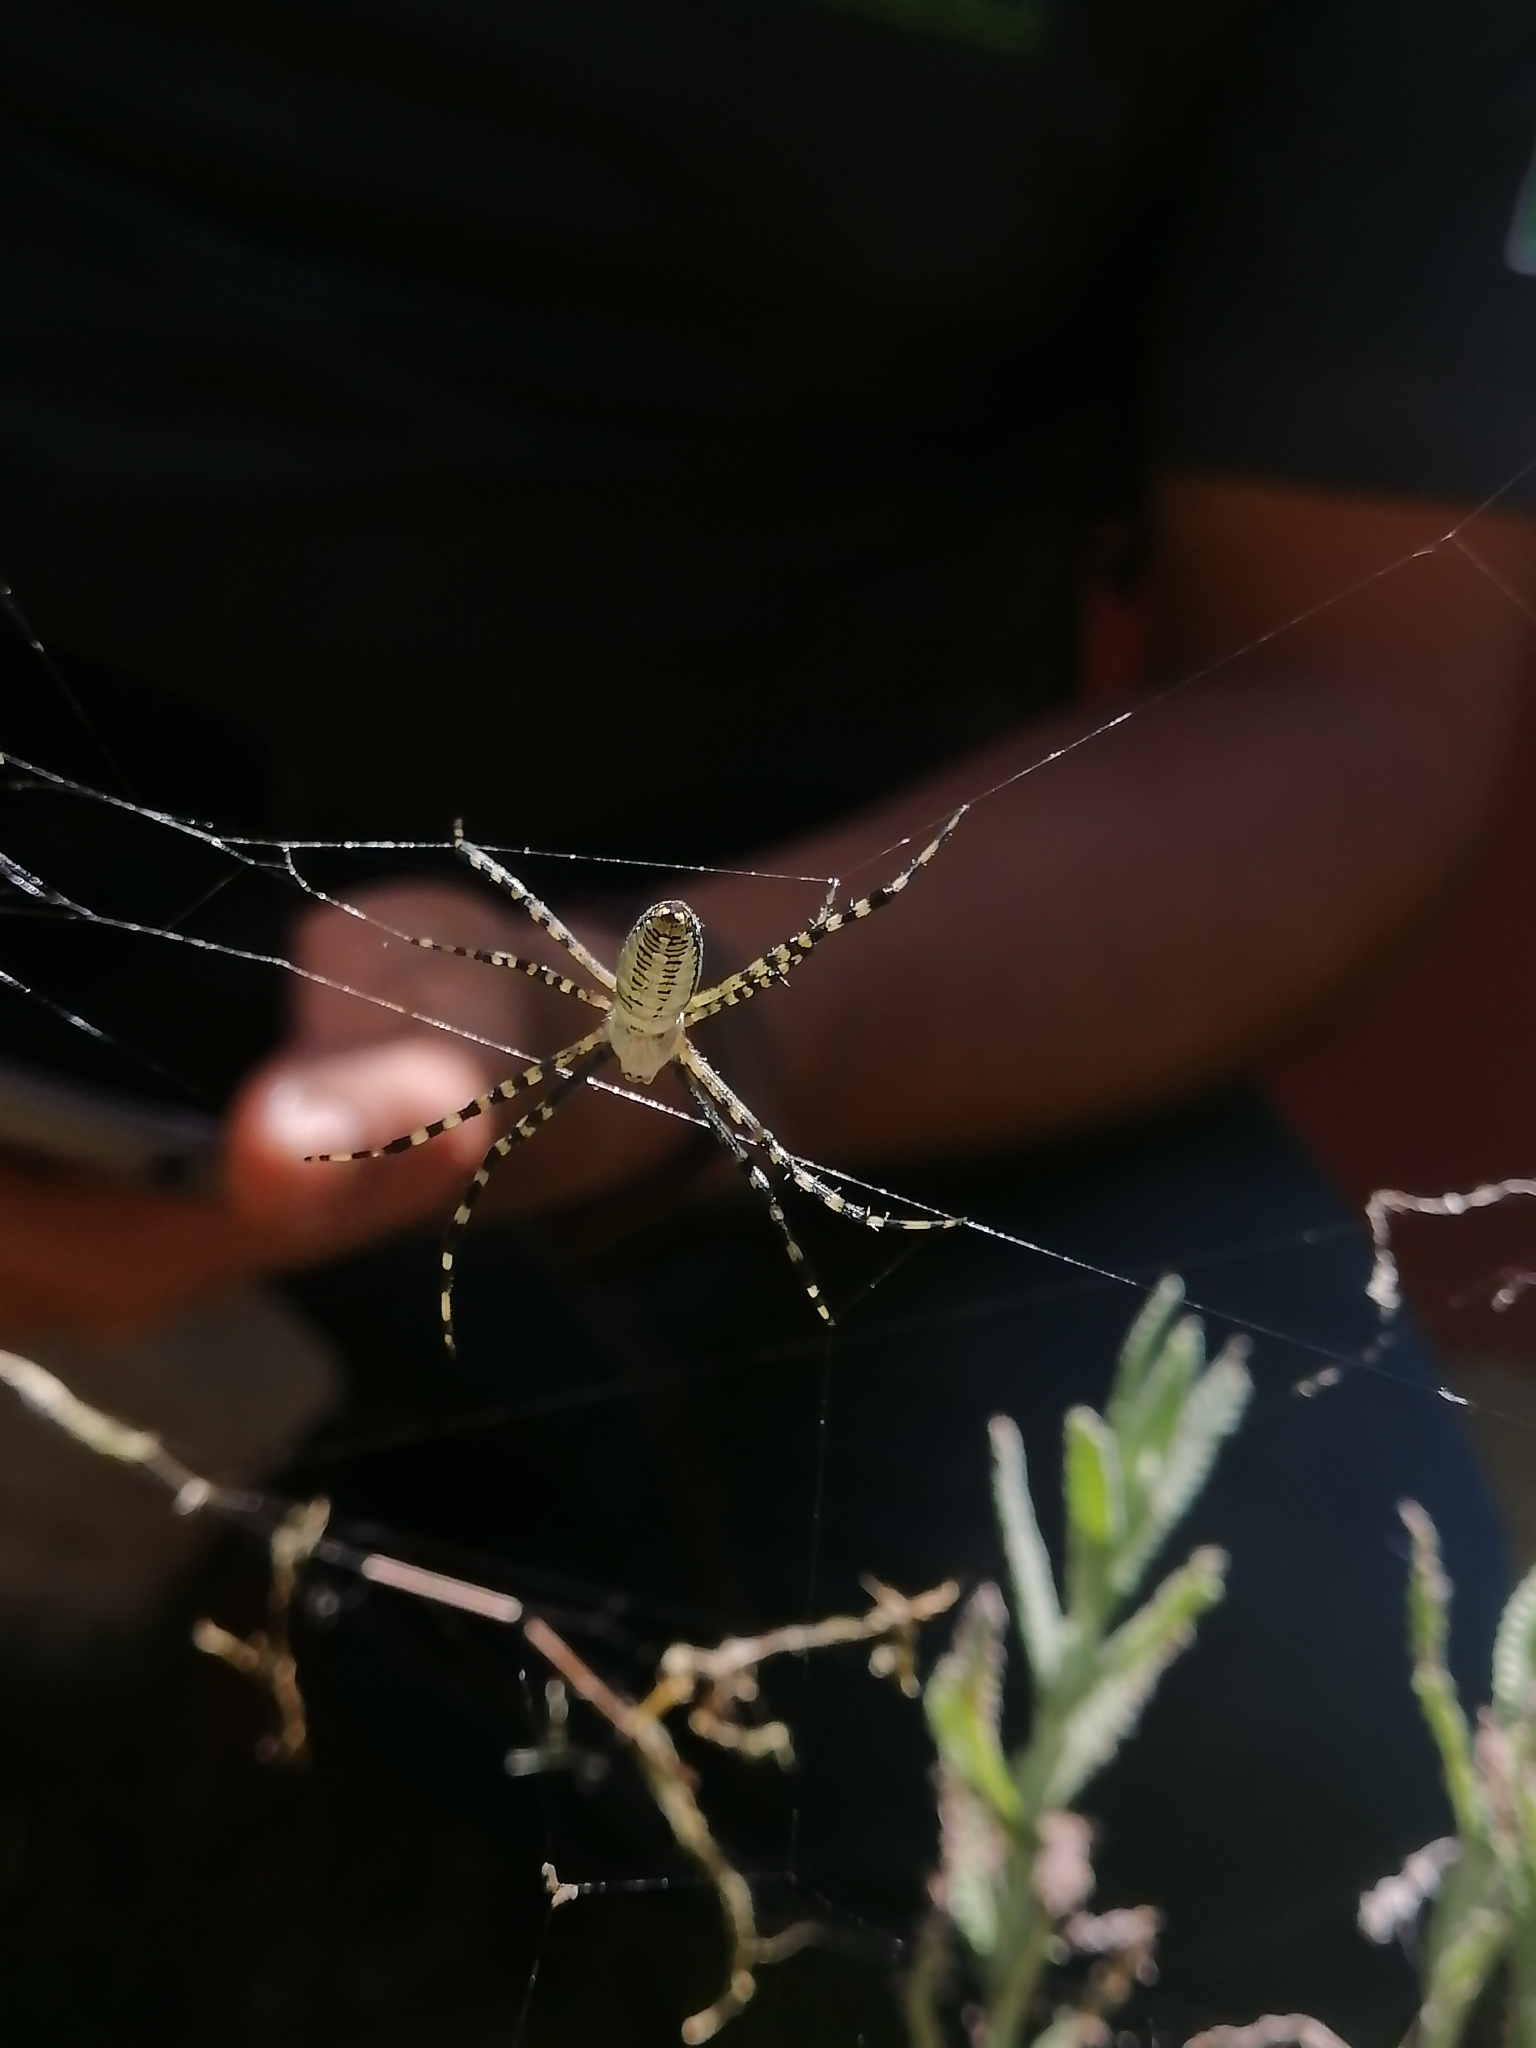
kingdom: Animalia
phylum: Arthropoda
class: Arachnida
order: Araneae
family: Araneidae
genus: Argiope
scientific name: Argiope trifasciata
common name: Banded garden spider
